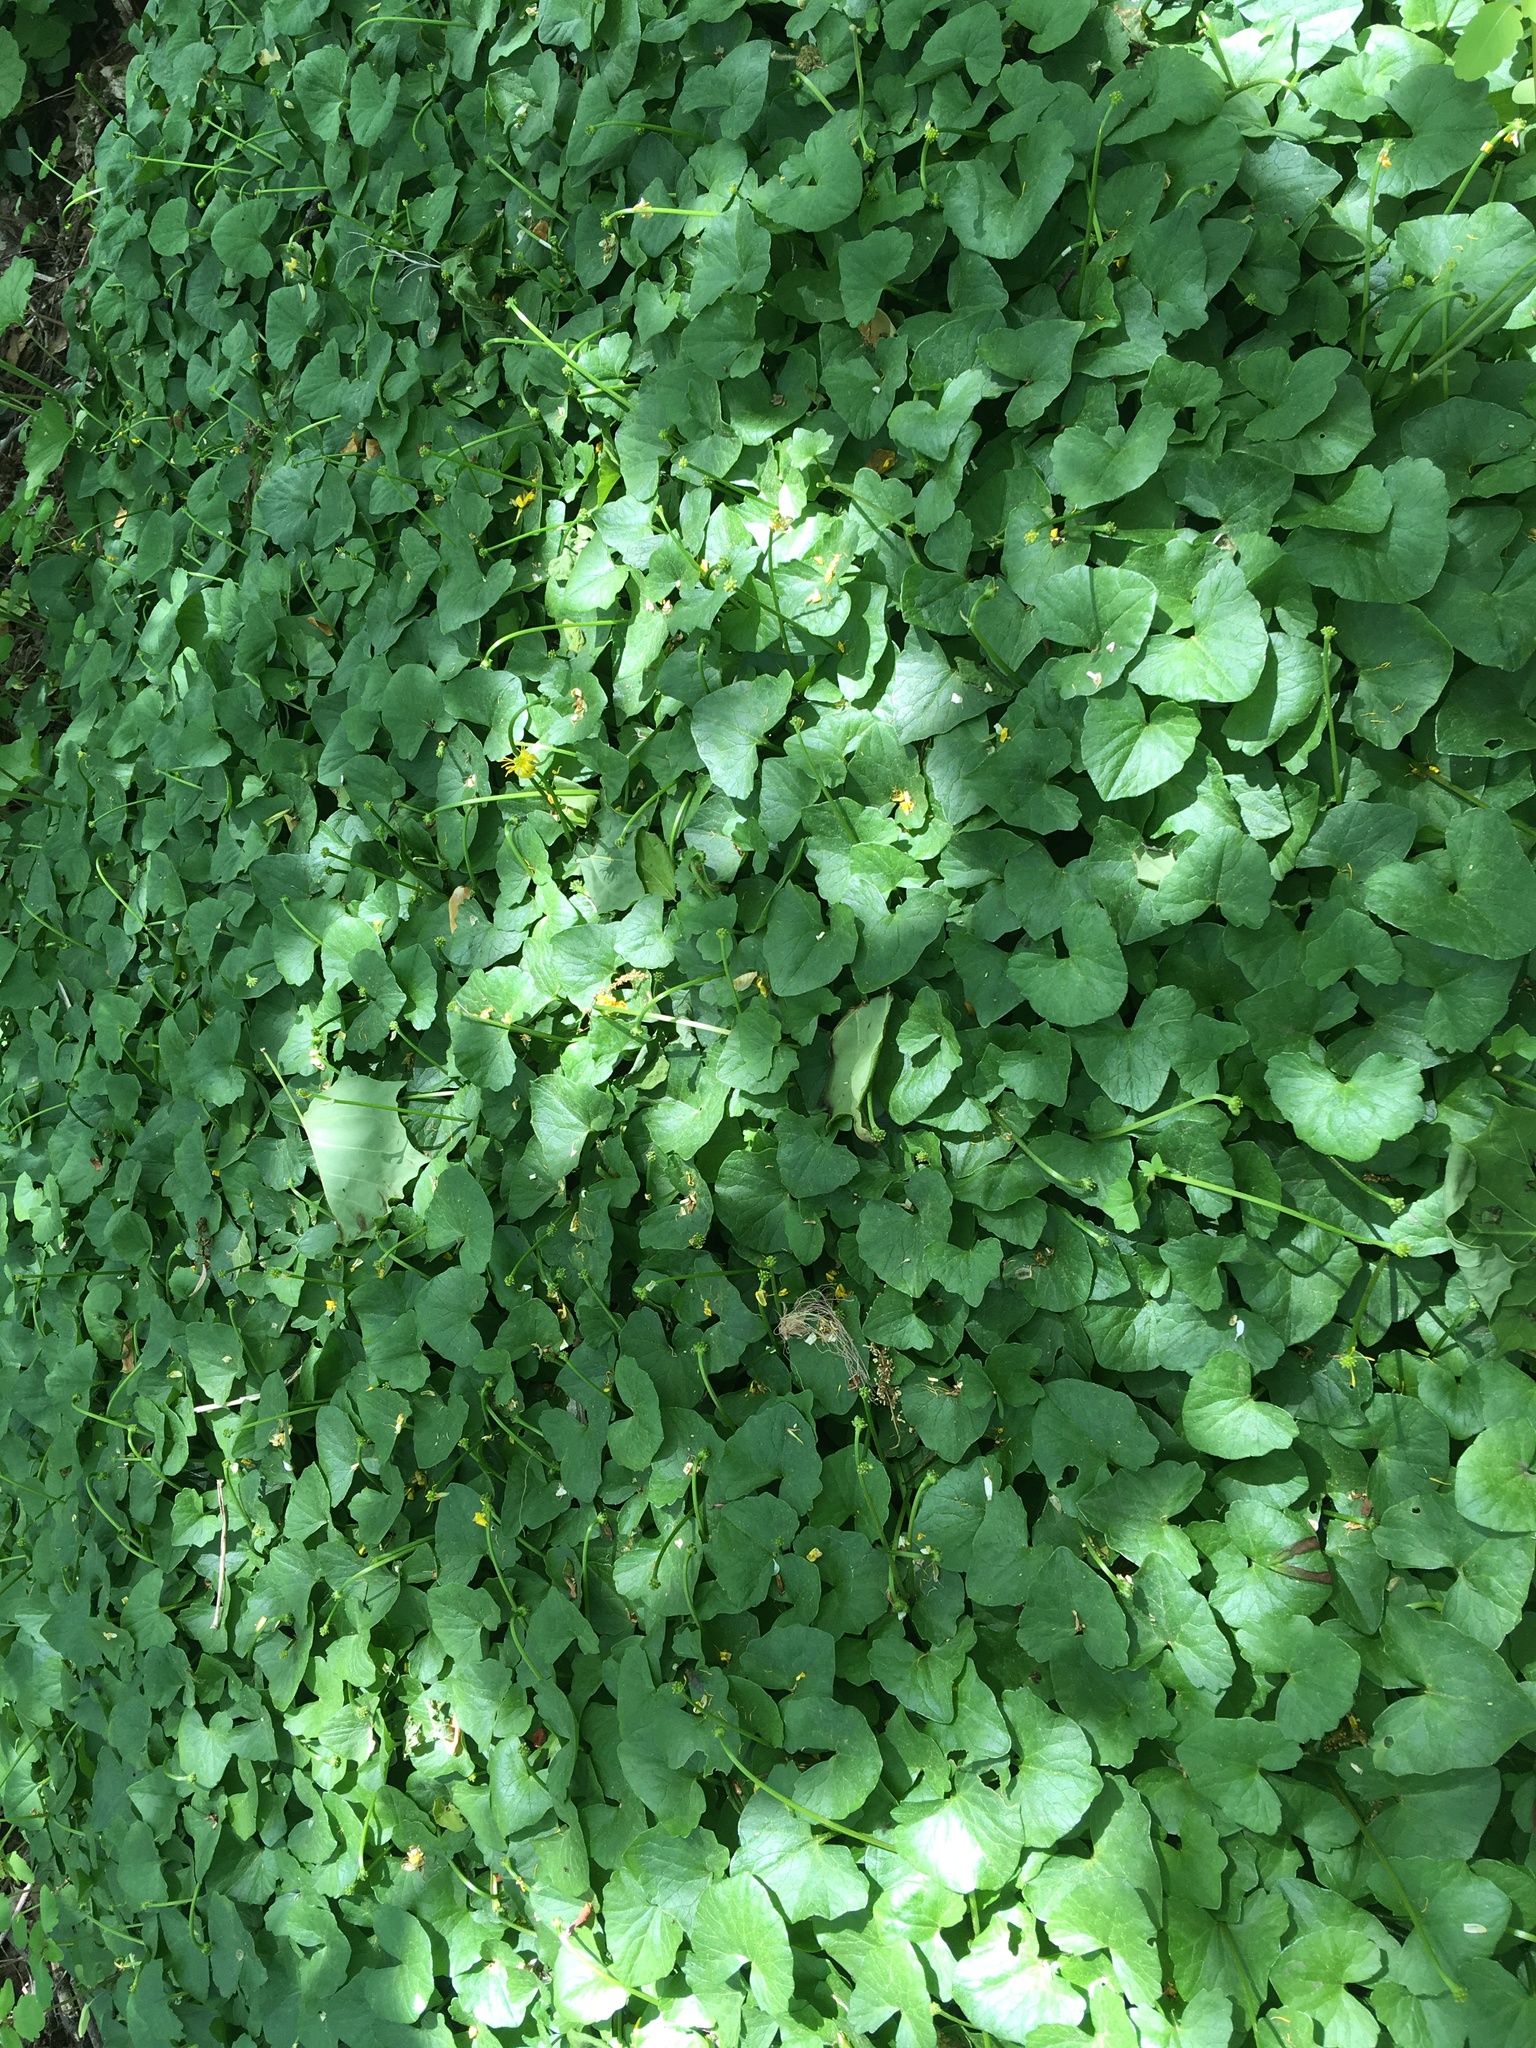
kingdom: Plantae
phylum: Tracheophyta
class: Magnoliopsida
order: Ranunculales
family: Ranunculaceae
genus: Ficaria
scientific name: Ficaria verna
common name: Lesser celandine
